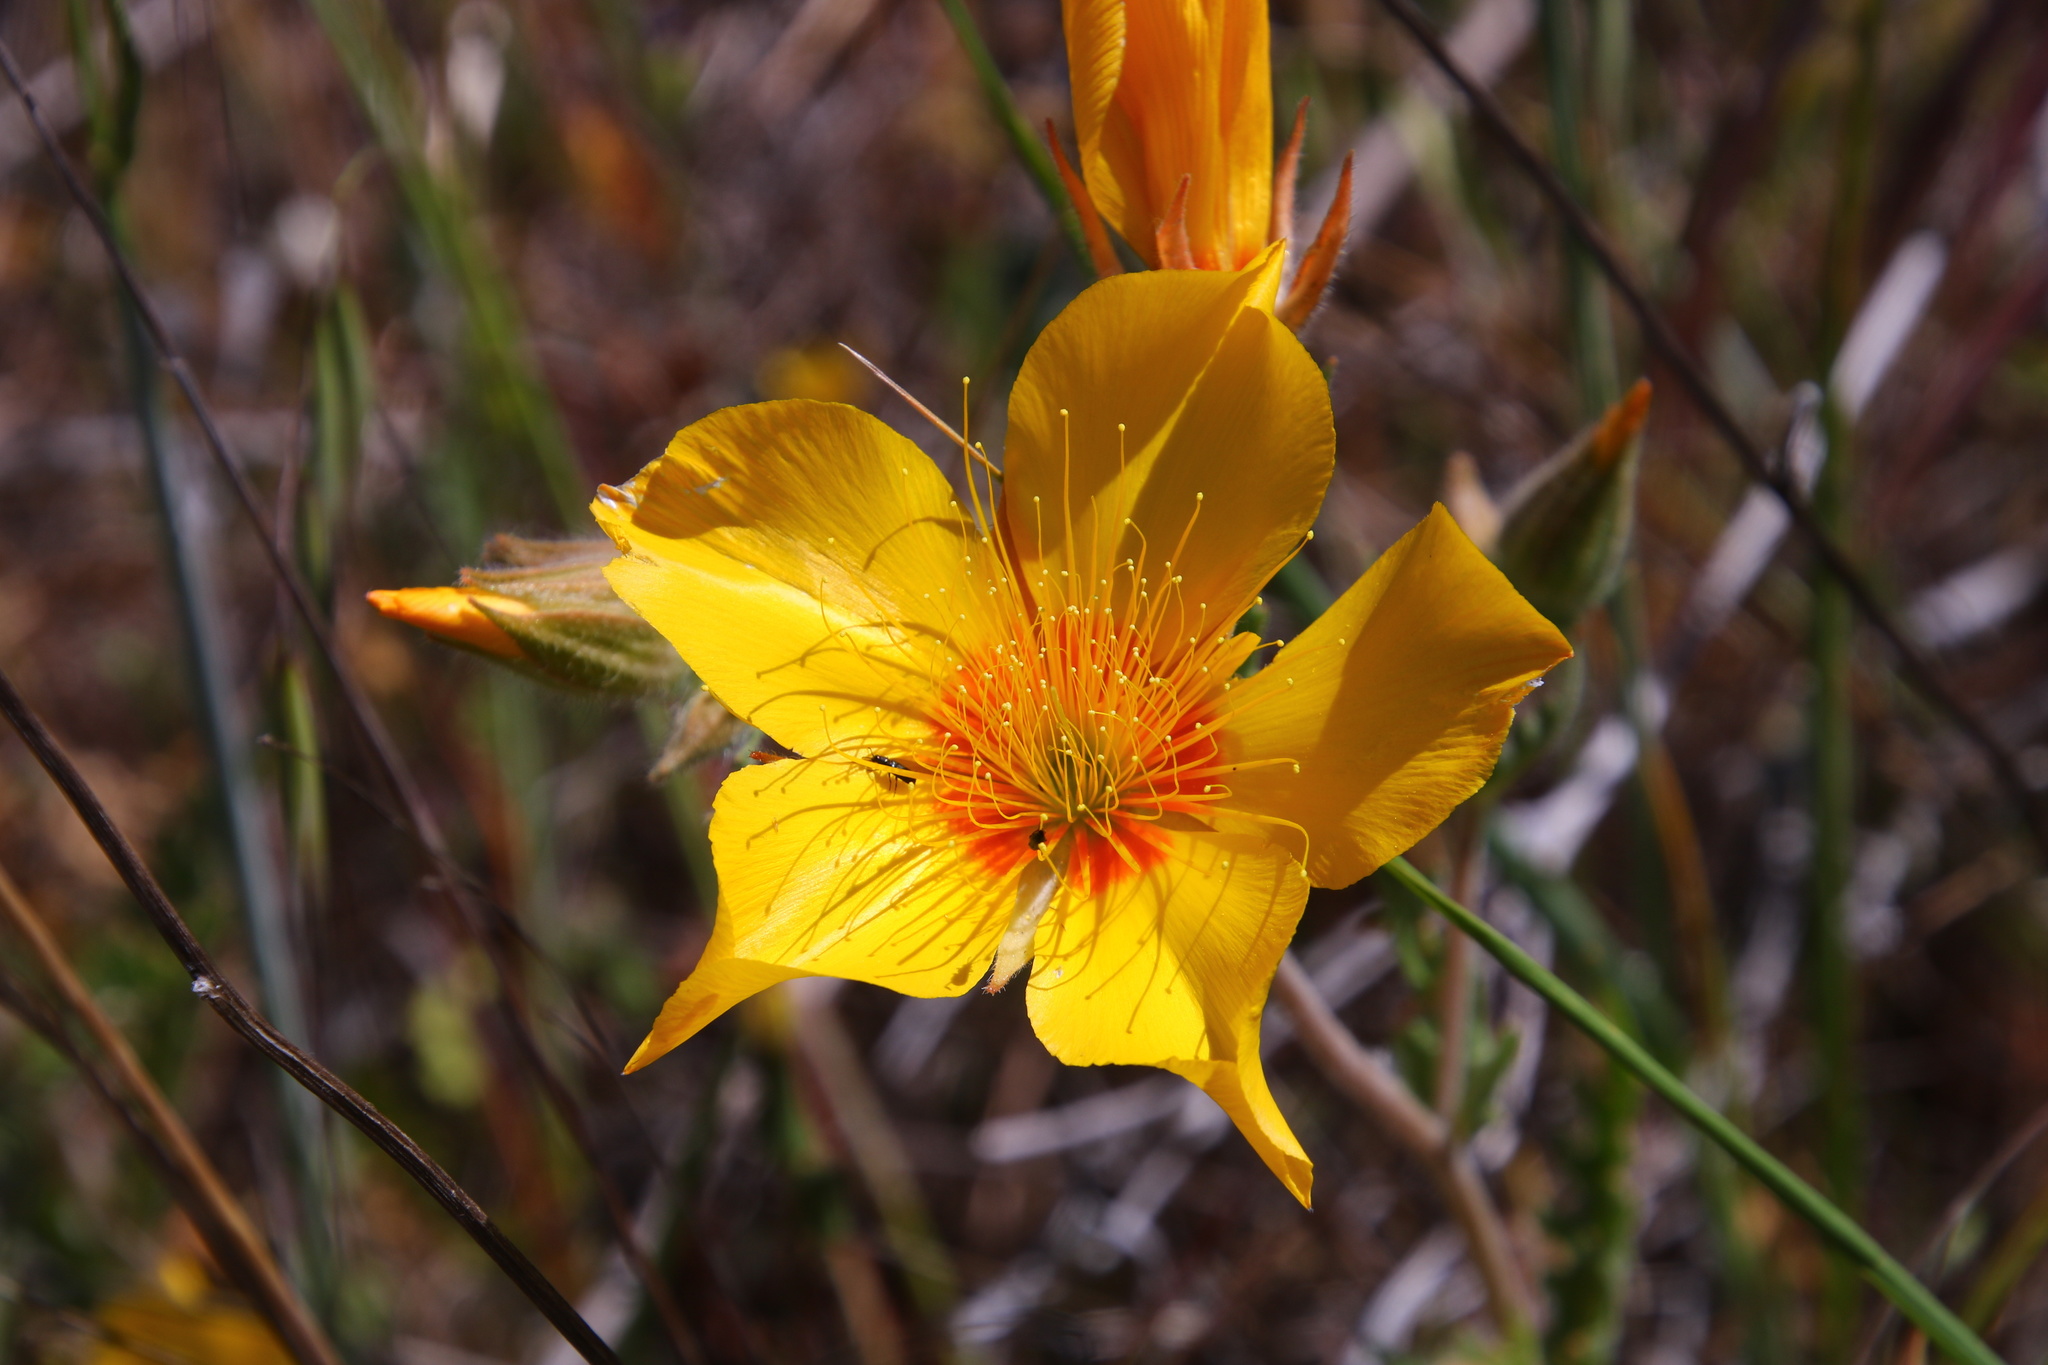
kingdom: Plantae
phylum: Tracheophyta
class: Magnoliopsida
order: Cornales
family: Loasaceae
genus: Mentzelia
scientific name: Mentzelia lindleyi
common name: Golden bartonia
